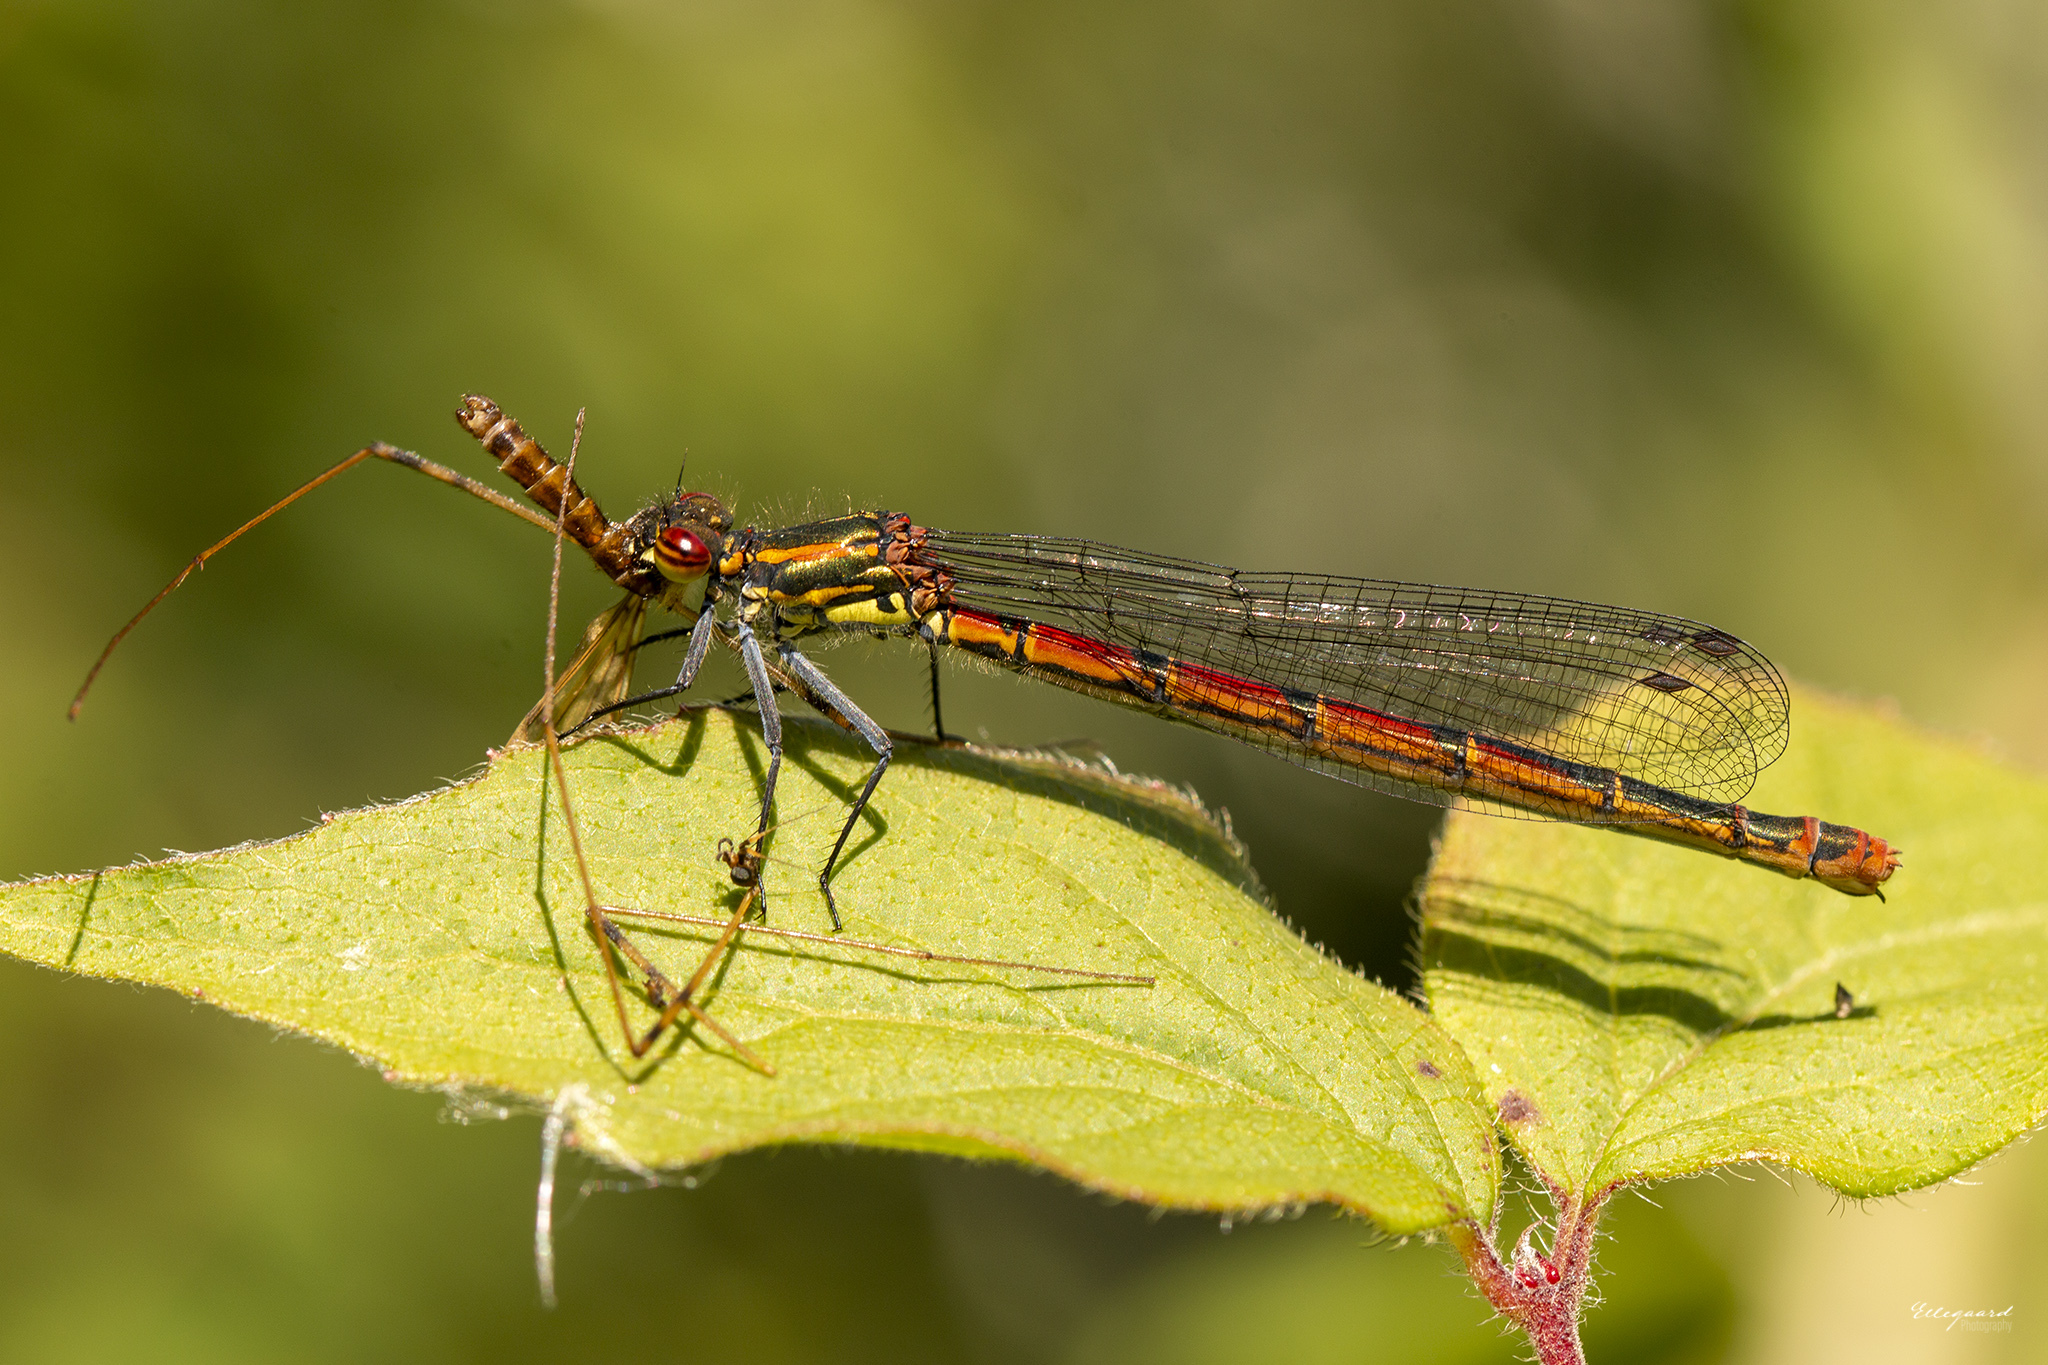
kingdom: Animalia
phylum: Arthropoda
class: Insecta
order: Odonata
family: Coenagrionidae
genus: Pyrrhosoma
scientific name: Pyrrhosoma nymphula
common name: Large red damsel
